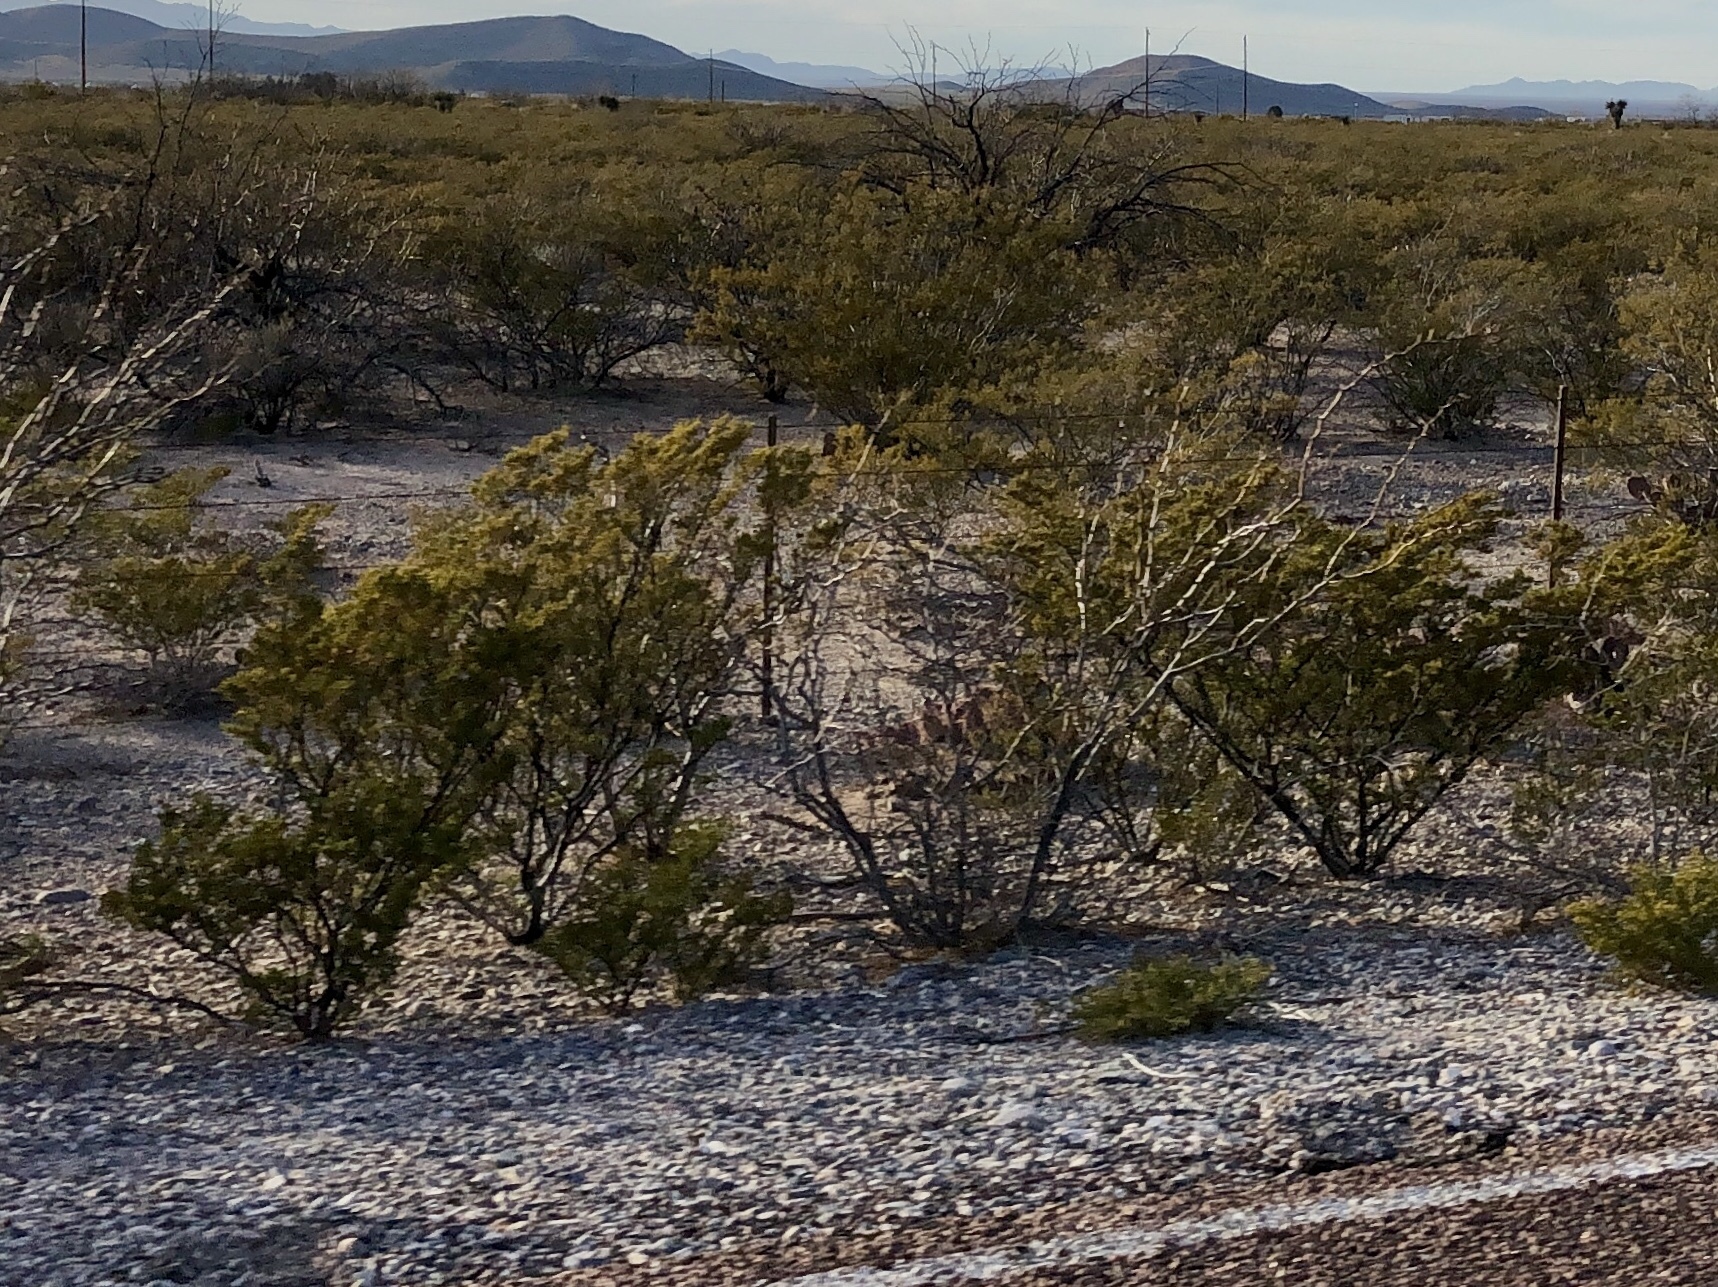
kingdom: Plantae
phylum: Tracheophyta
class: Magnoliopsida
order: Zygophyllales
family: Zygophyllaceae
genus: Larrea
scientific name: Larrea tridentata
